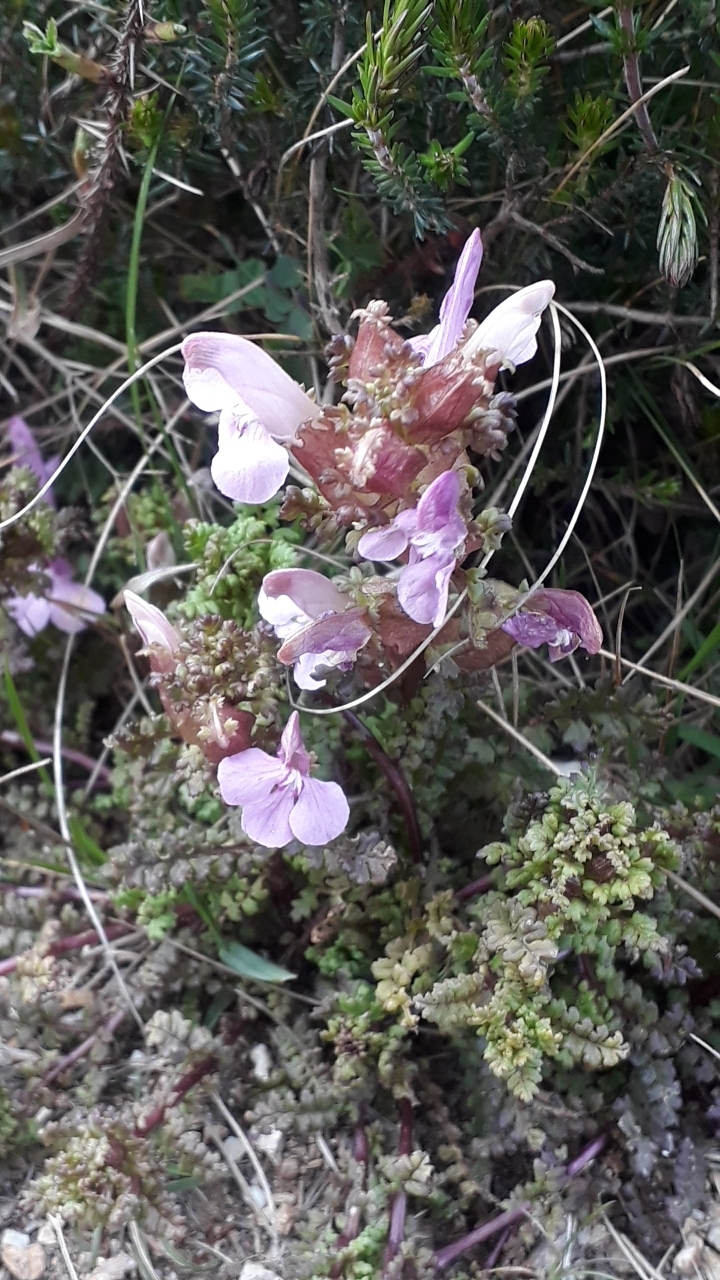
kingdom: Plantae
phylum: Tracheophyta
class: Magnoliopsida
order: Lamiales
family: Orobanchaceae
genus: Pedicularis
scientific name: Pedicularis sylvatica
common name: Lousewort
